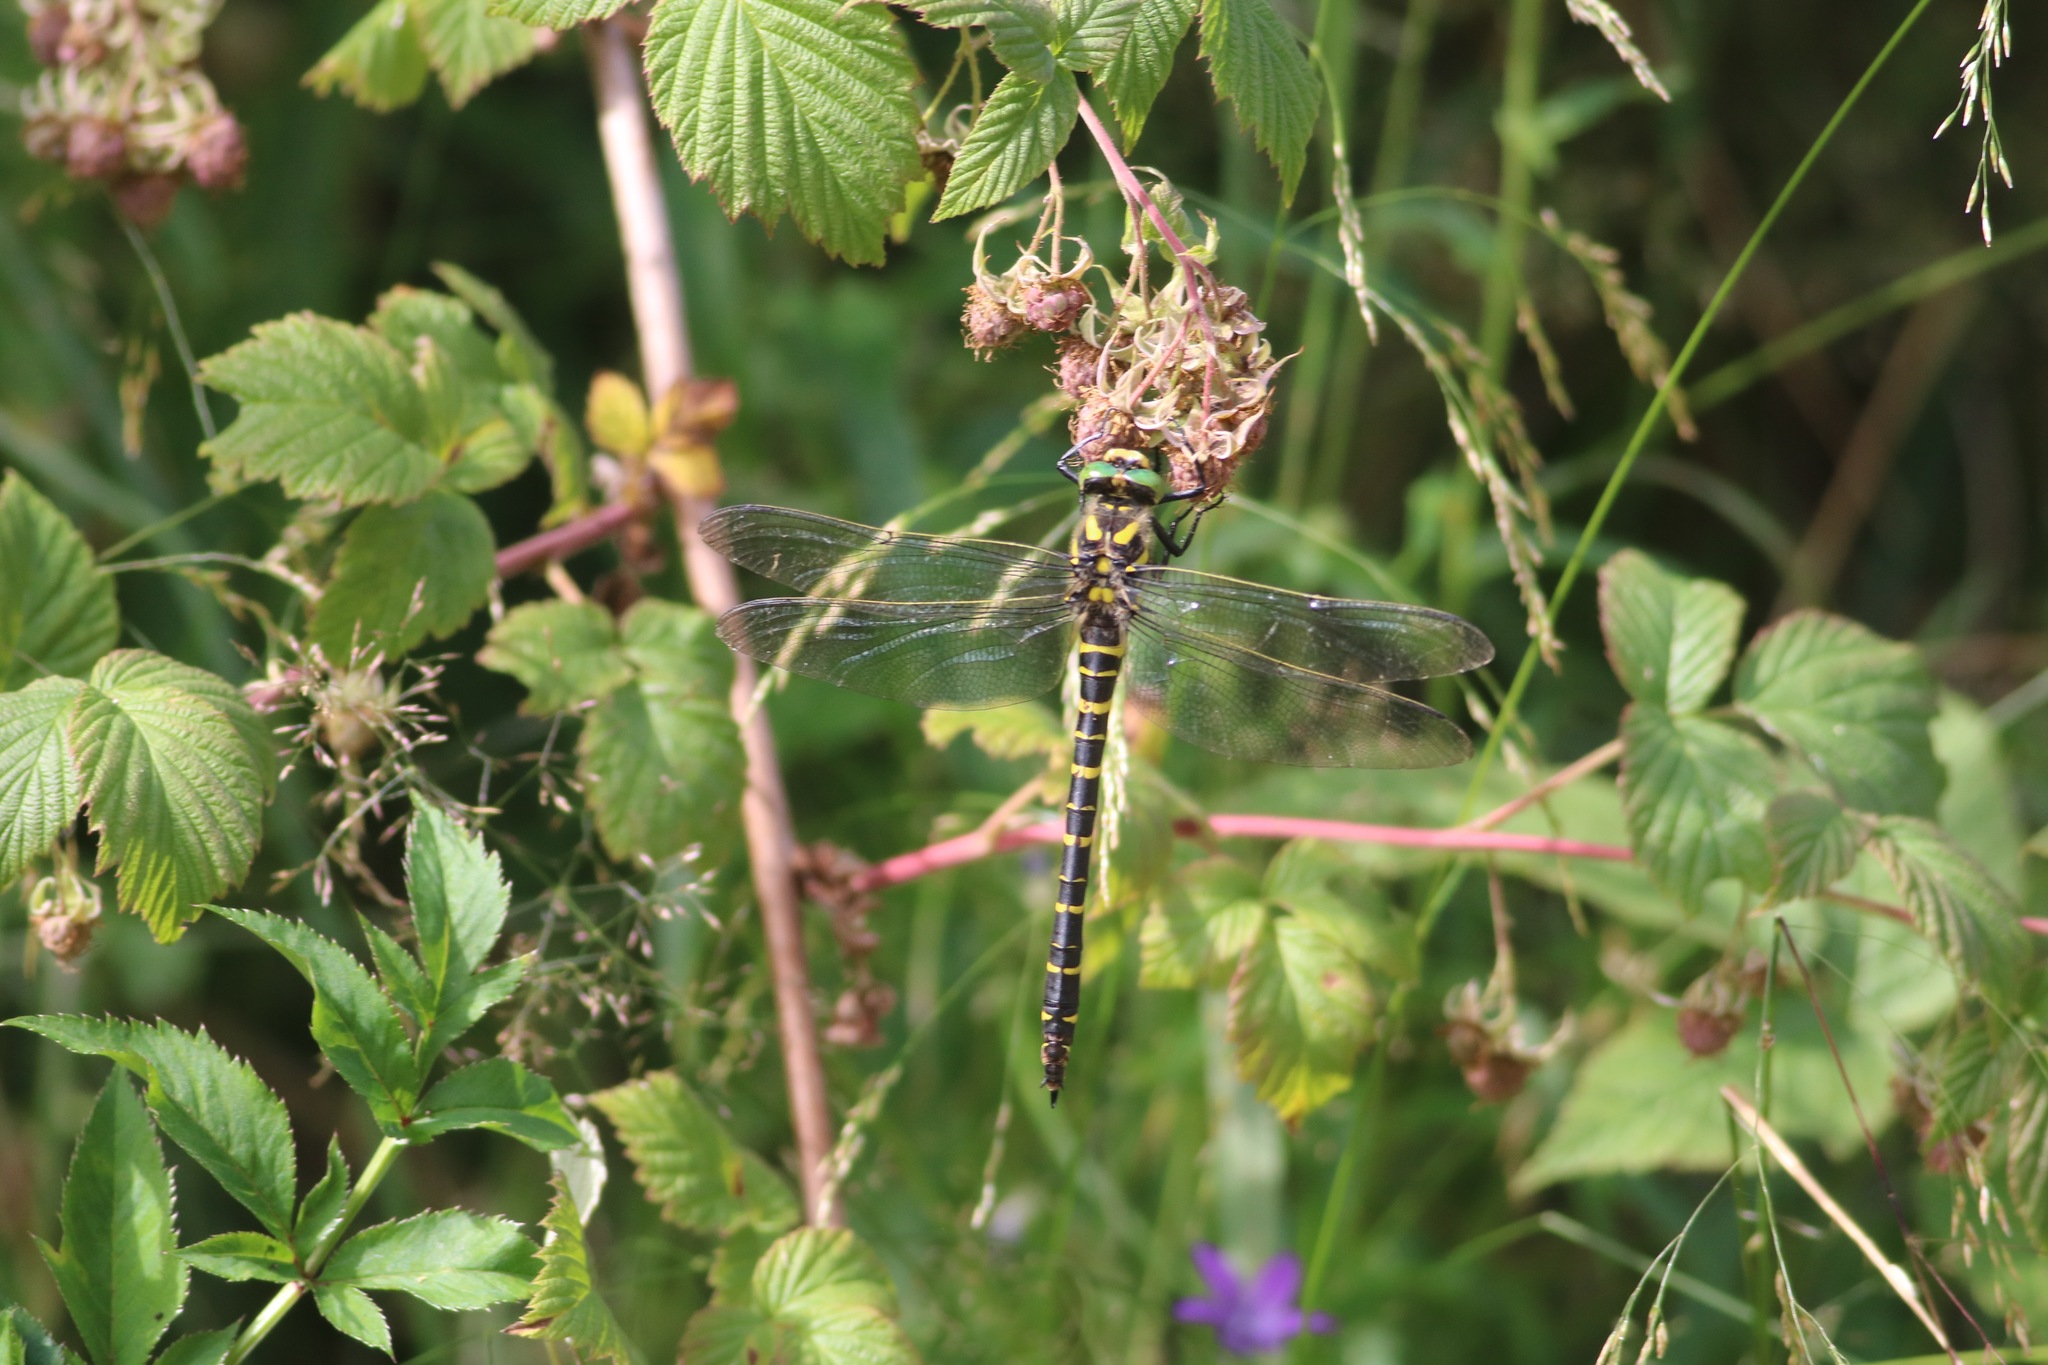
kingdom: Animalia
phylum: Arthropoda
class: Insecta
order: Odonata
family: Cordulegastridae
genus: Cordulegaster
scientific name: Cordulegaster boltonii
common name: Golden-ringed dragonfly
